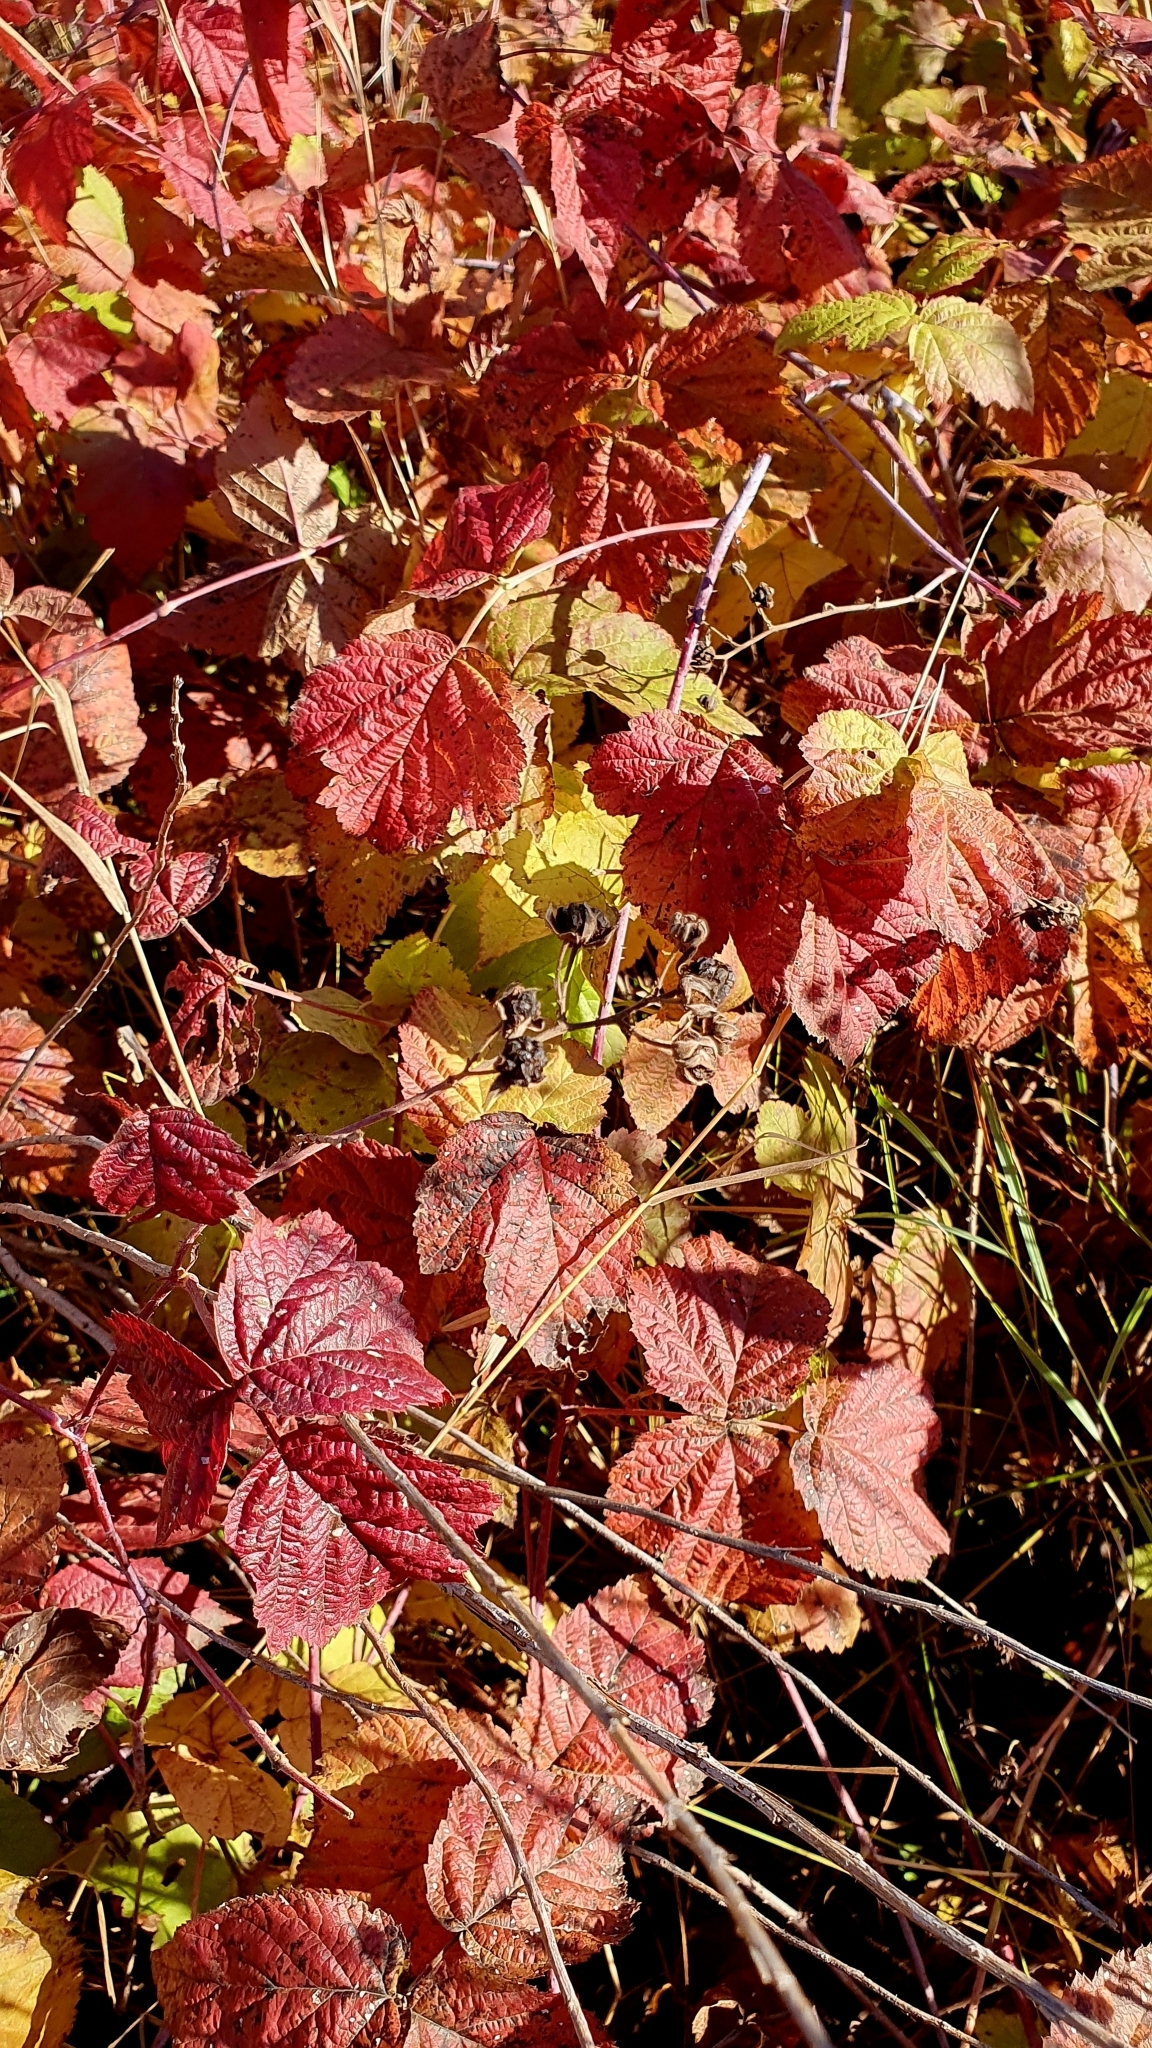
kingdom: Plantae
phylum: Tracheophyta
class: Magnoliopsida
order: Rosales
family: Rosaceae
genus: Rubus
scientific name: Rubus caesius
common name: Dewberry
